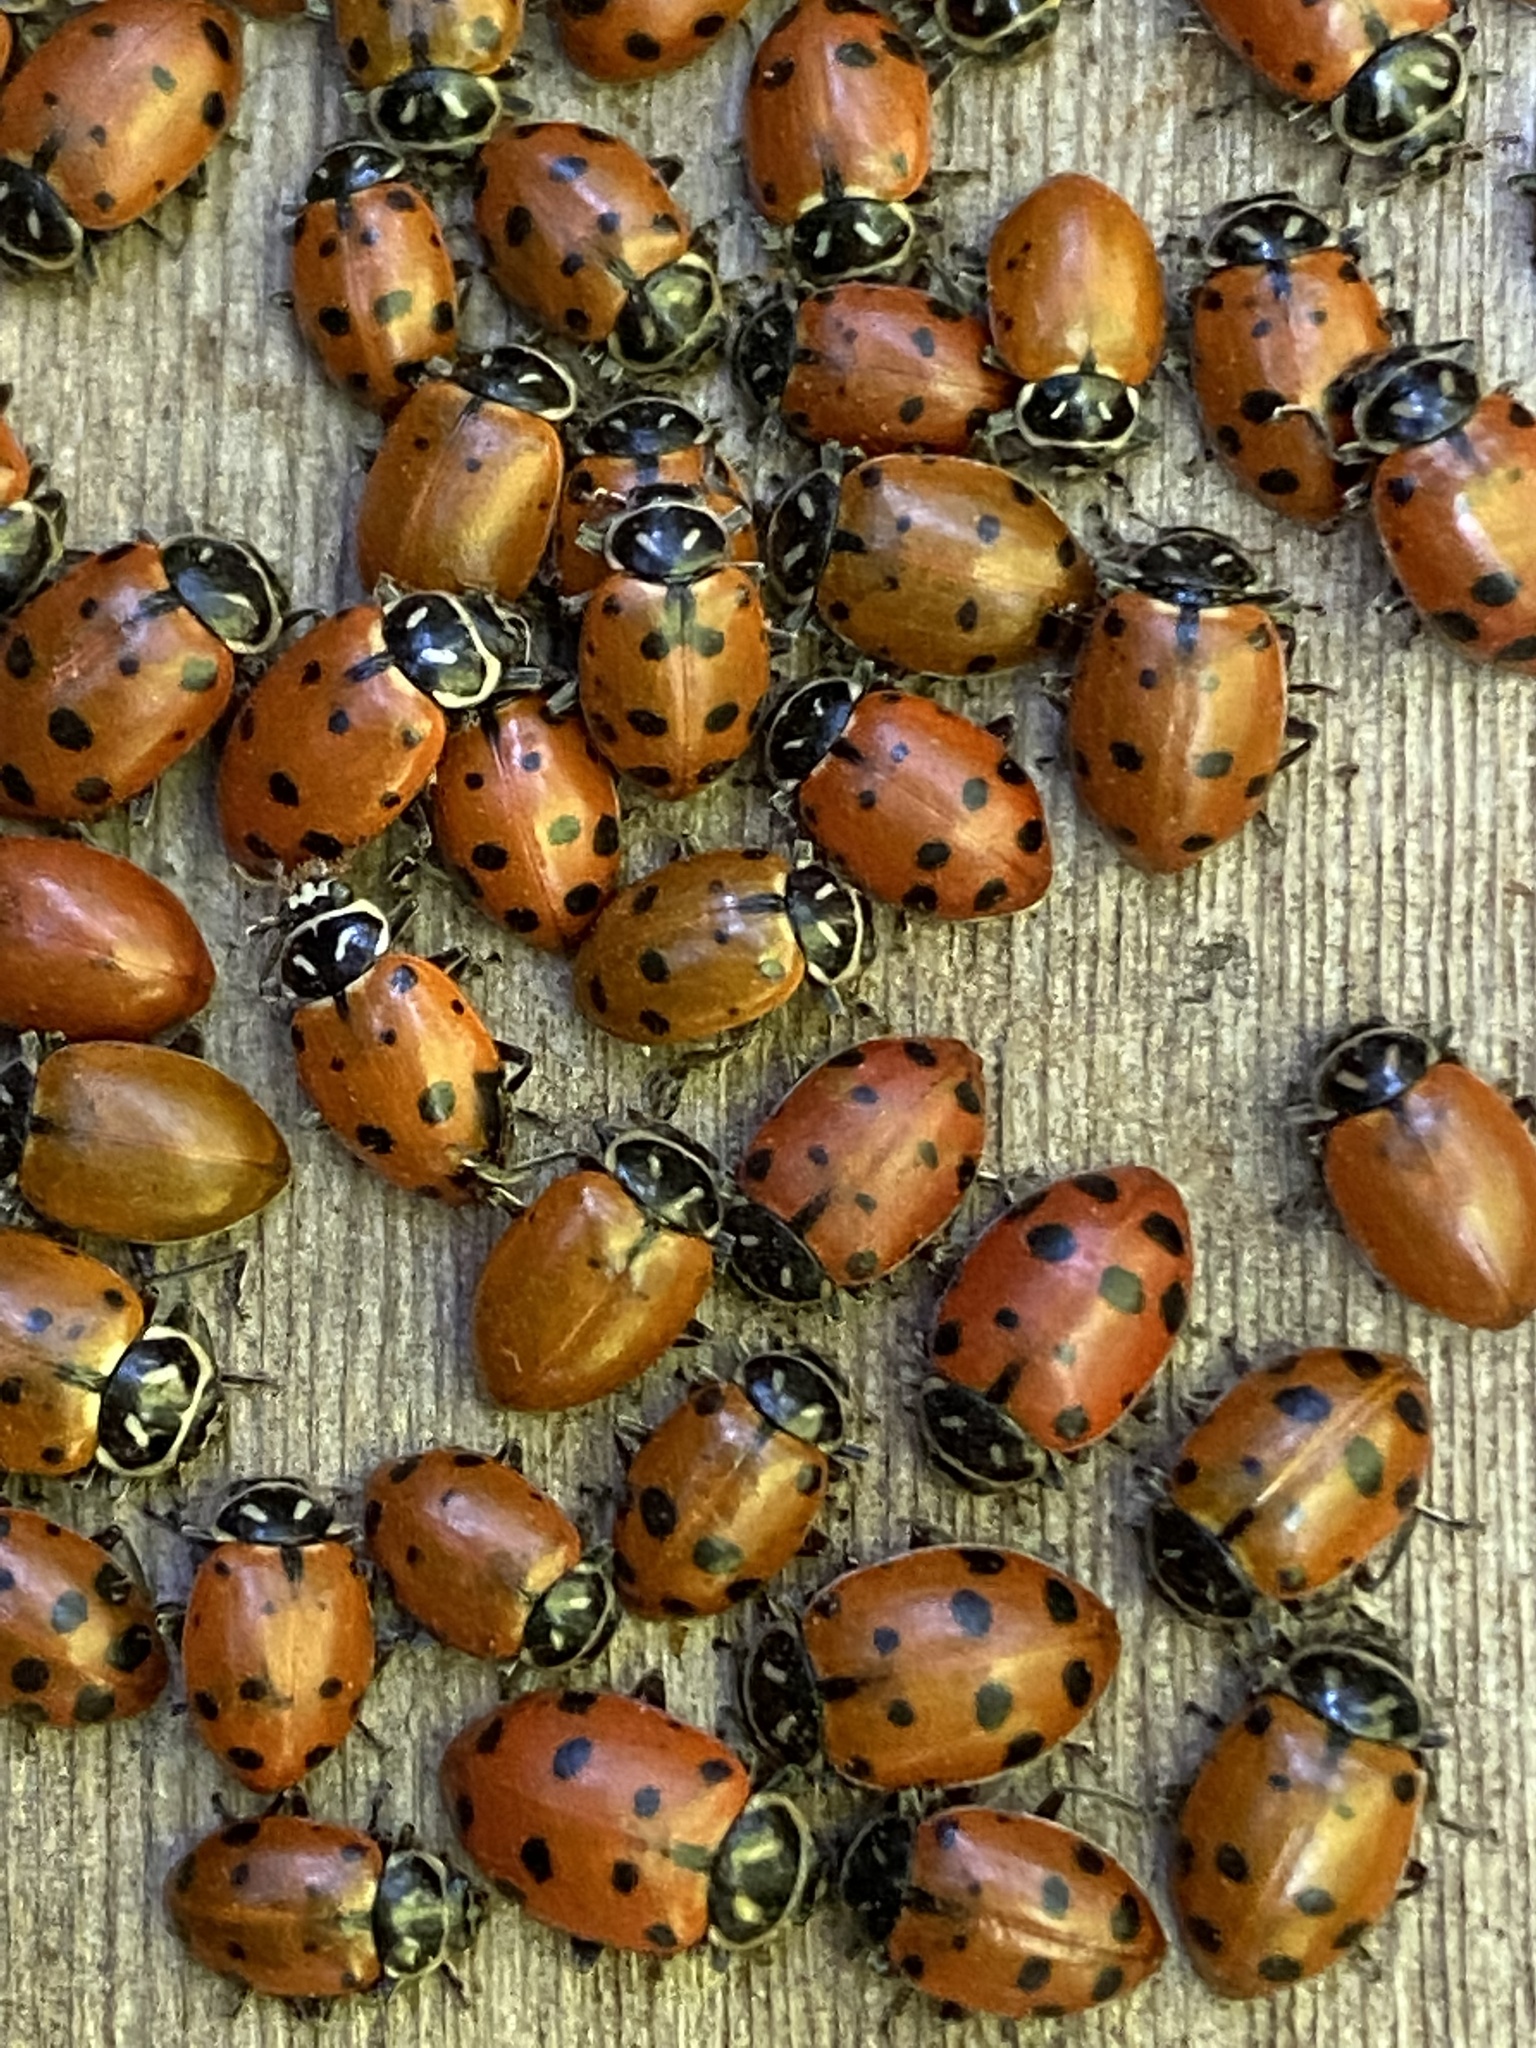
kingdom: Animalia
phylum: Arthropoda
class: Insecta
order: Coleoptera
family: Coccinellidae
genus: Hippodamia
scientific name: Hippodamia convergens
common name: Convergent lady beetle
